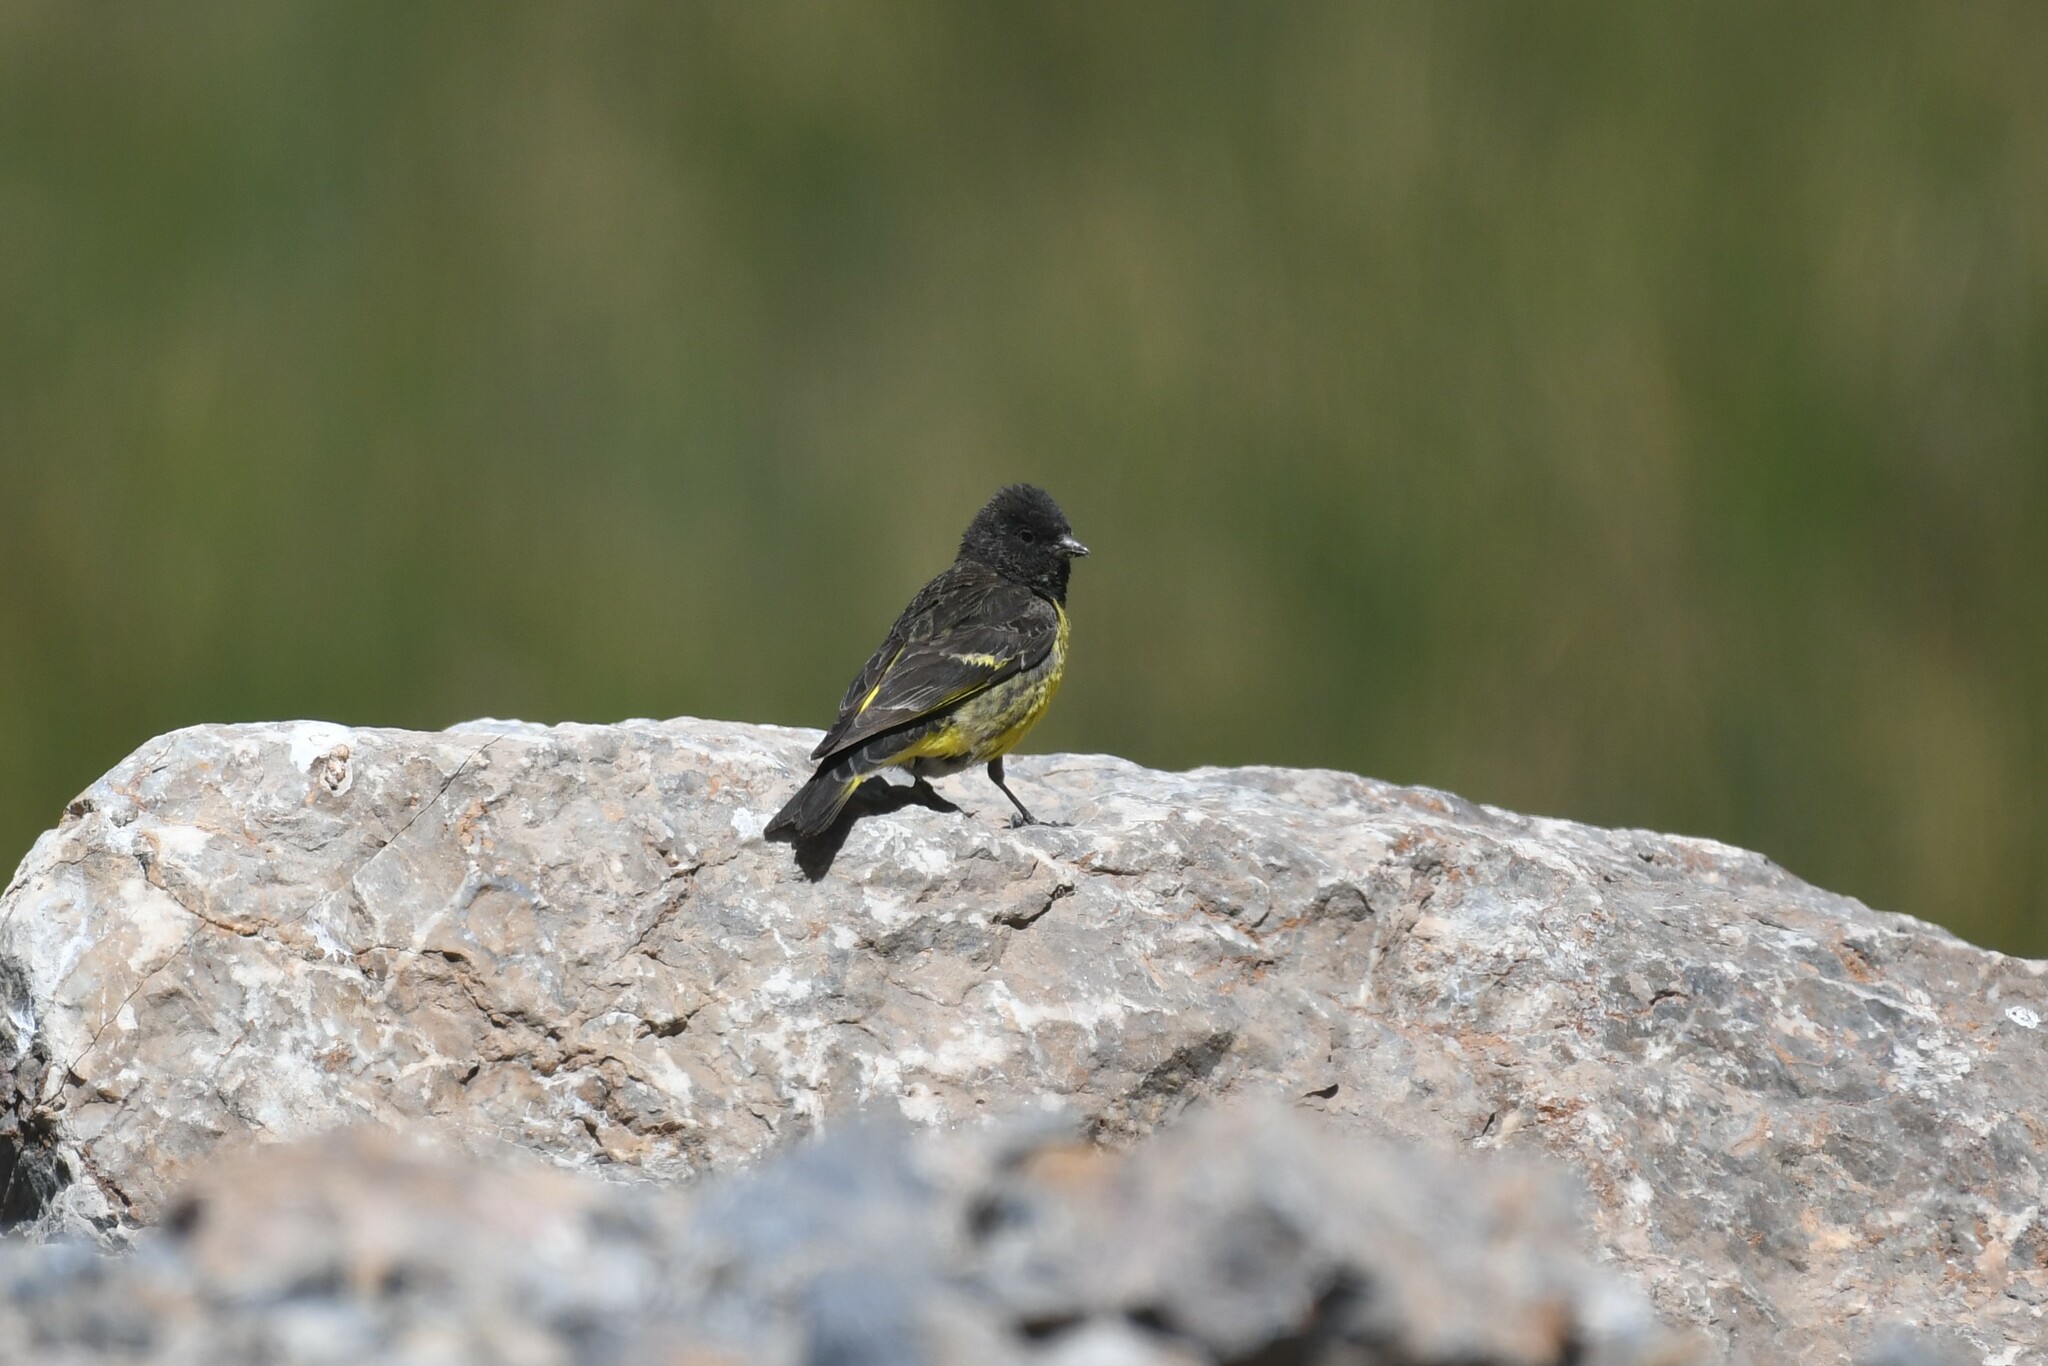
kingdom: Animalia
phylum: Chordata
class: Aves
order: Passeriformes
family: Fringillidae
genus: Spinus
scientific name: Spinus uropygialis
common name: Yellow-rumped siskin
